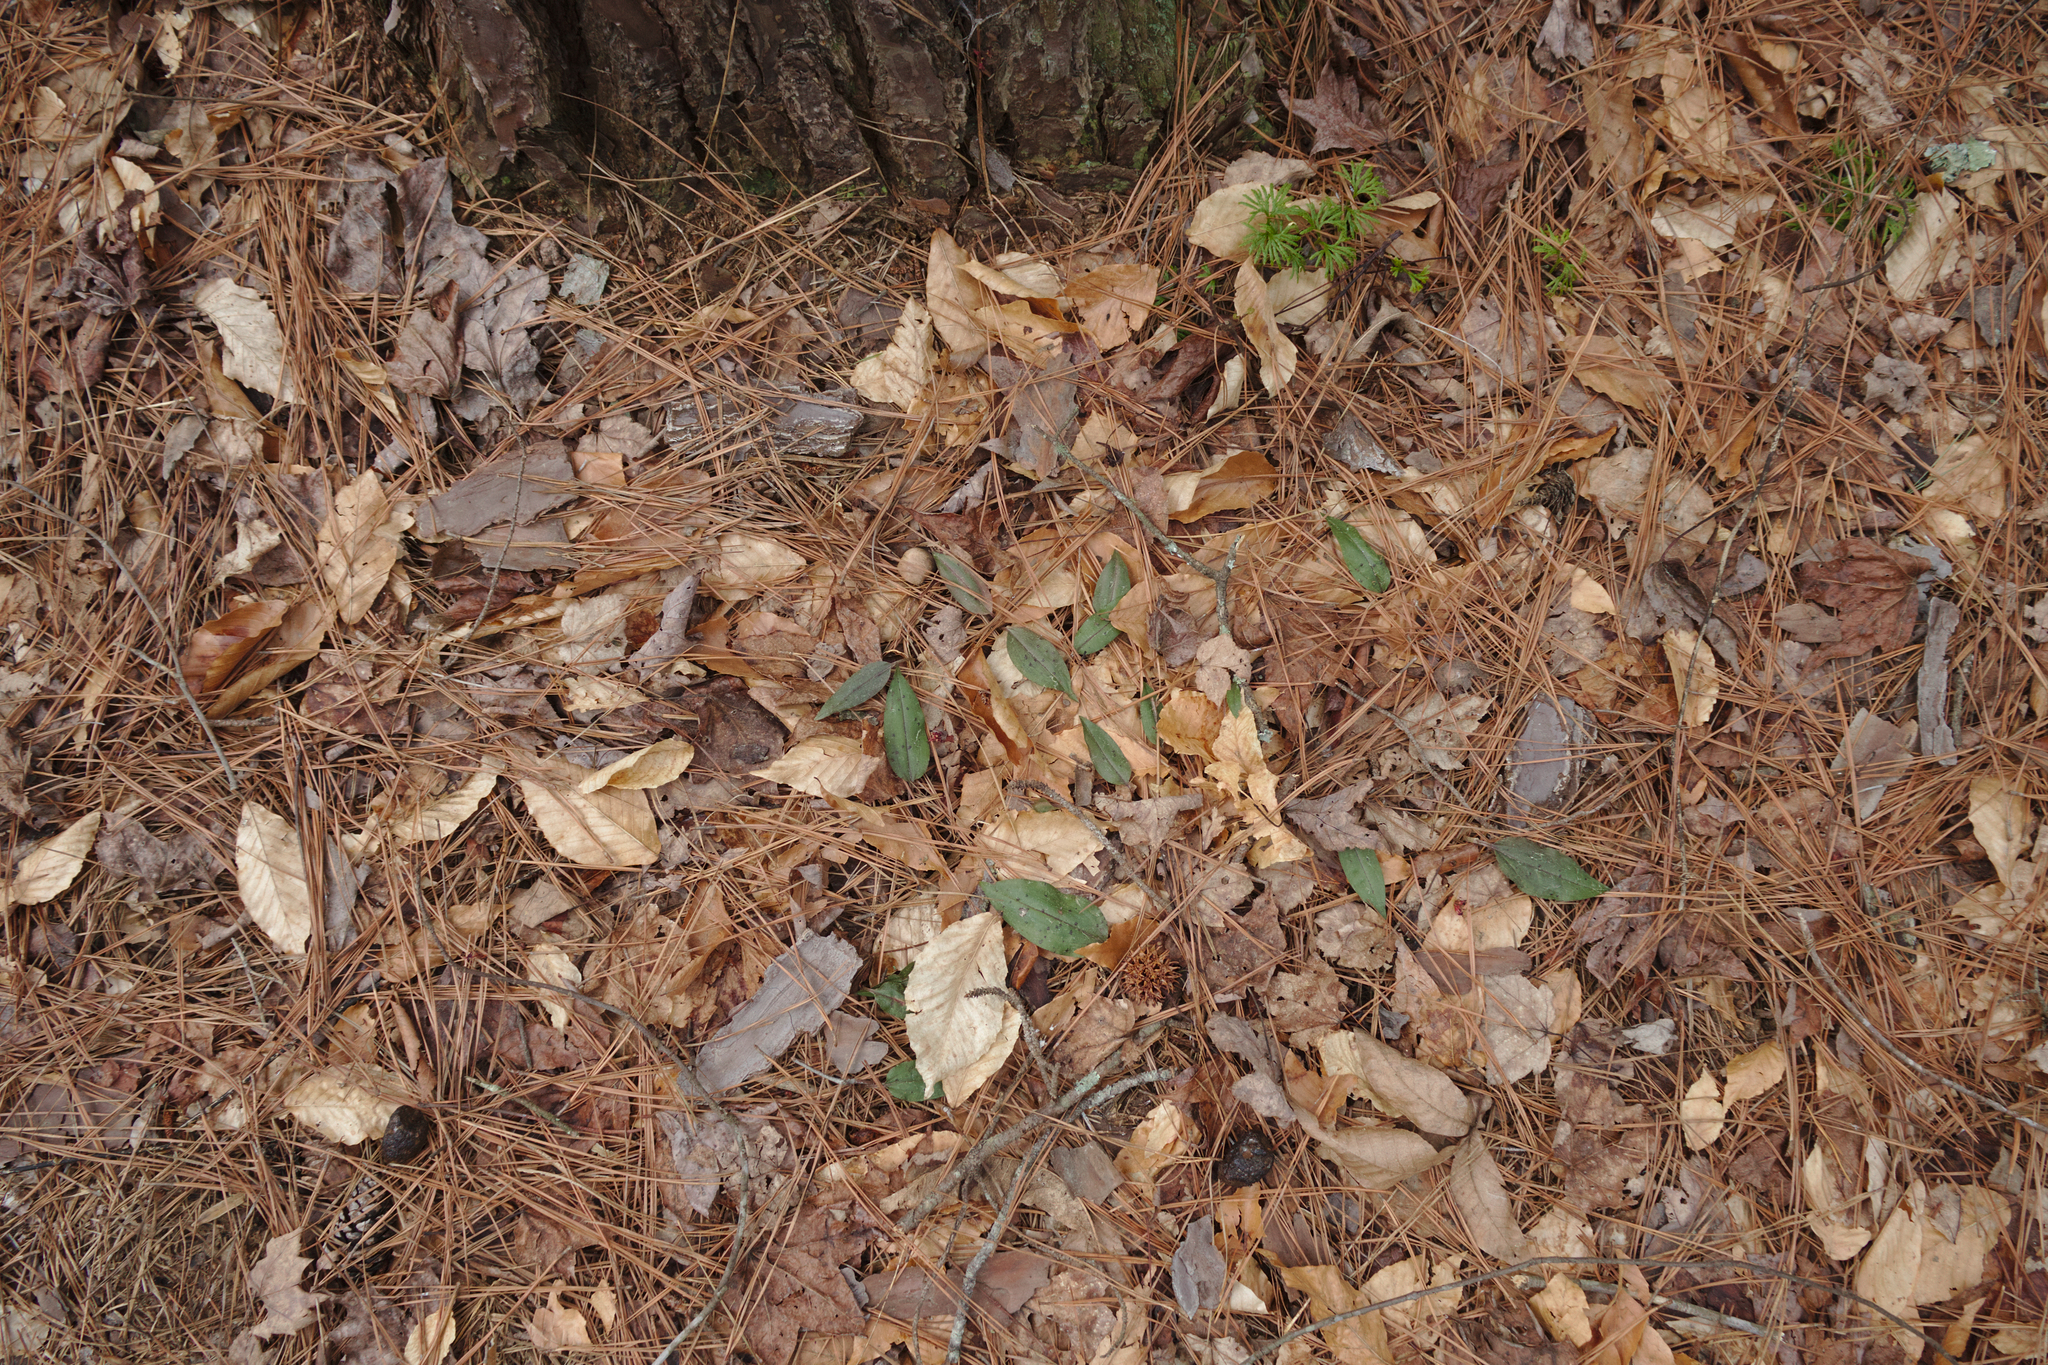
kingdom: Plantae
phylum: Tracheophyta
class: Liliopsida
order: Asparagales
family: Orchidaceae
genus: Tipularia
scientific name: Tipularia discolor
